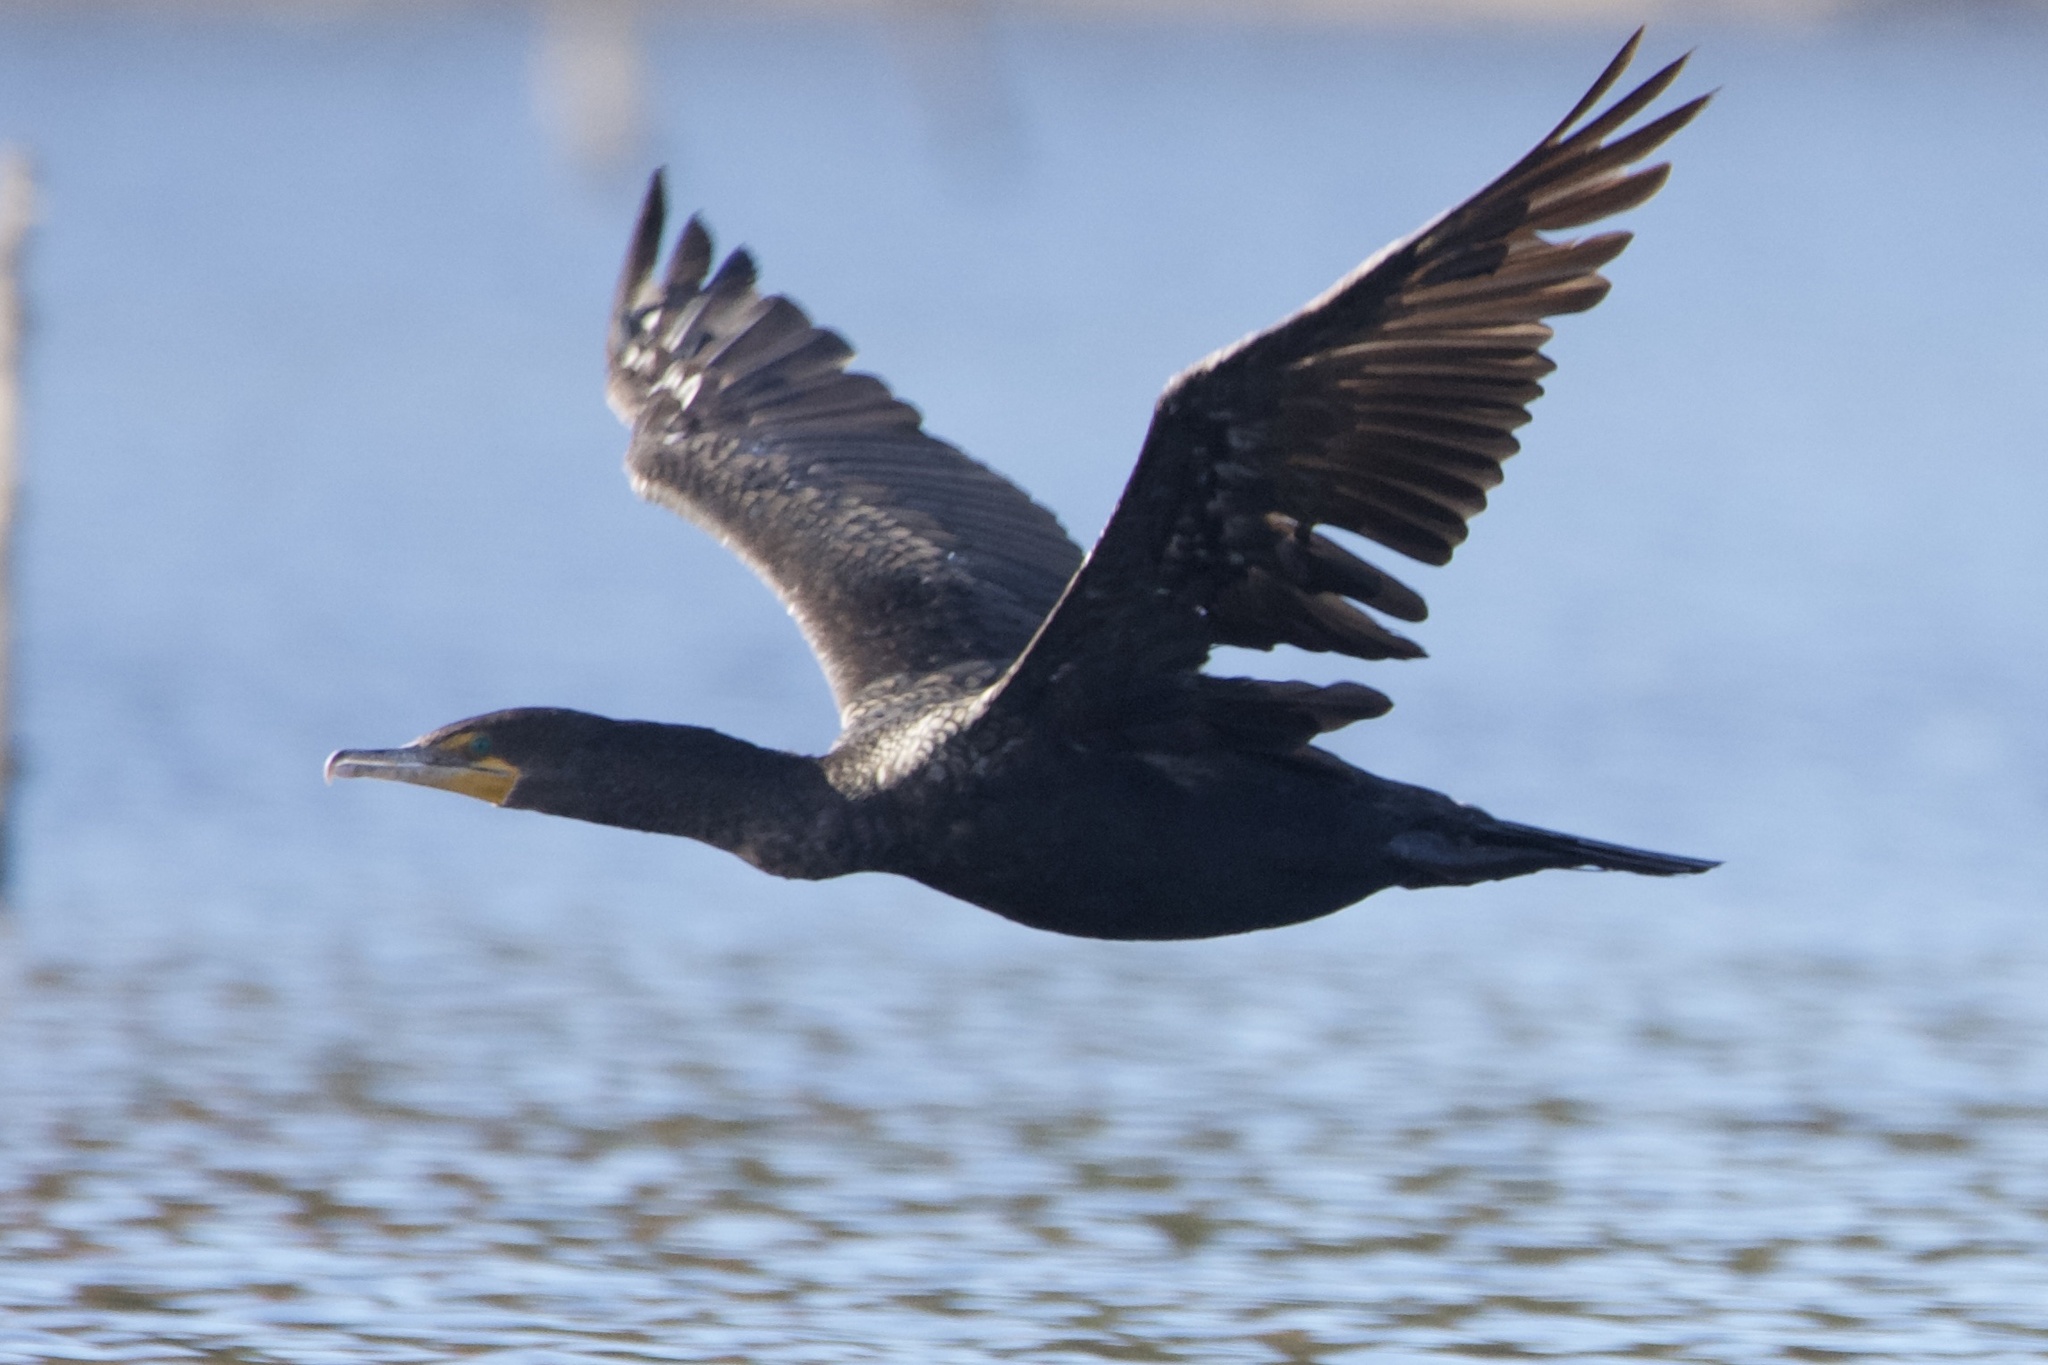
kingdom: Animalia
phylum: Chordata
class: Aves
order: Suliformes
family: Phalacrocoracidae
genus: Phalacrocorax
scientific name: Phalacrocorax auritus
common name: Double-crested cormorant
